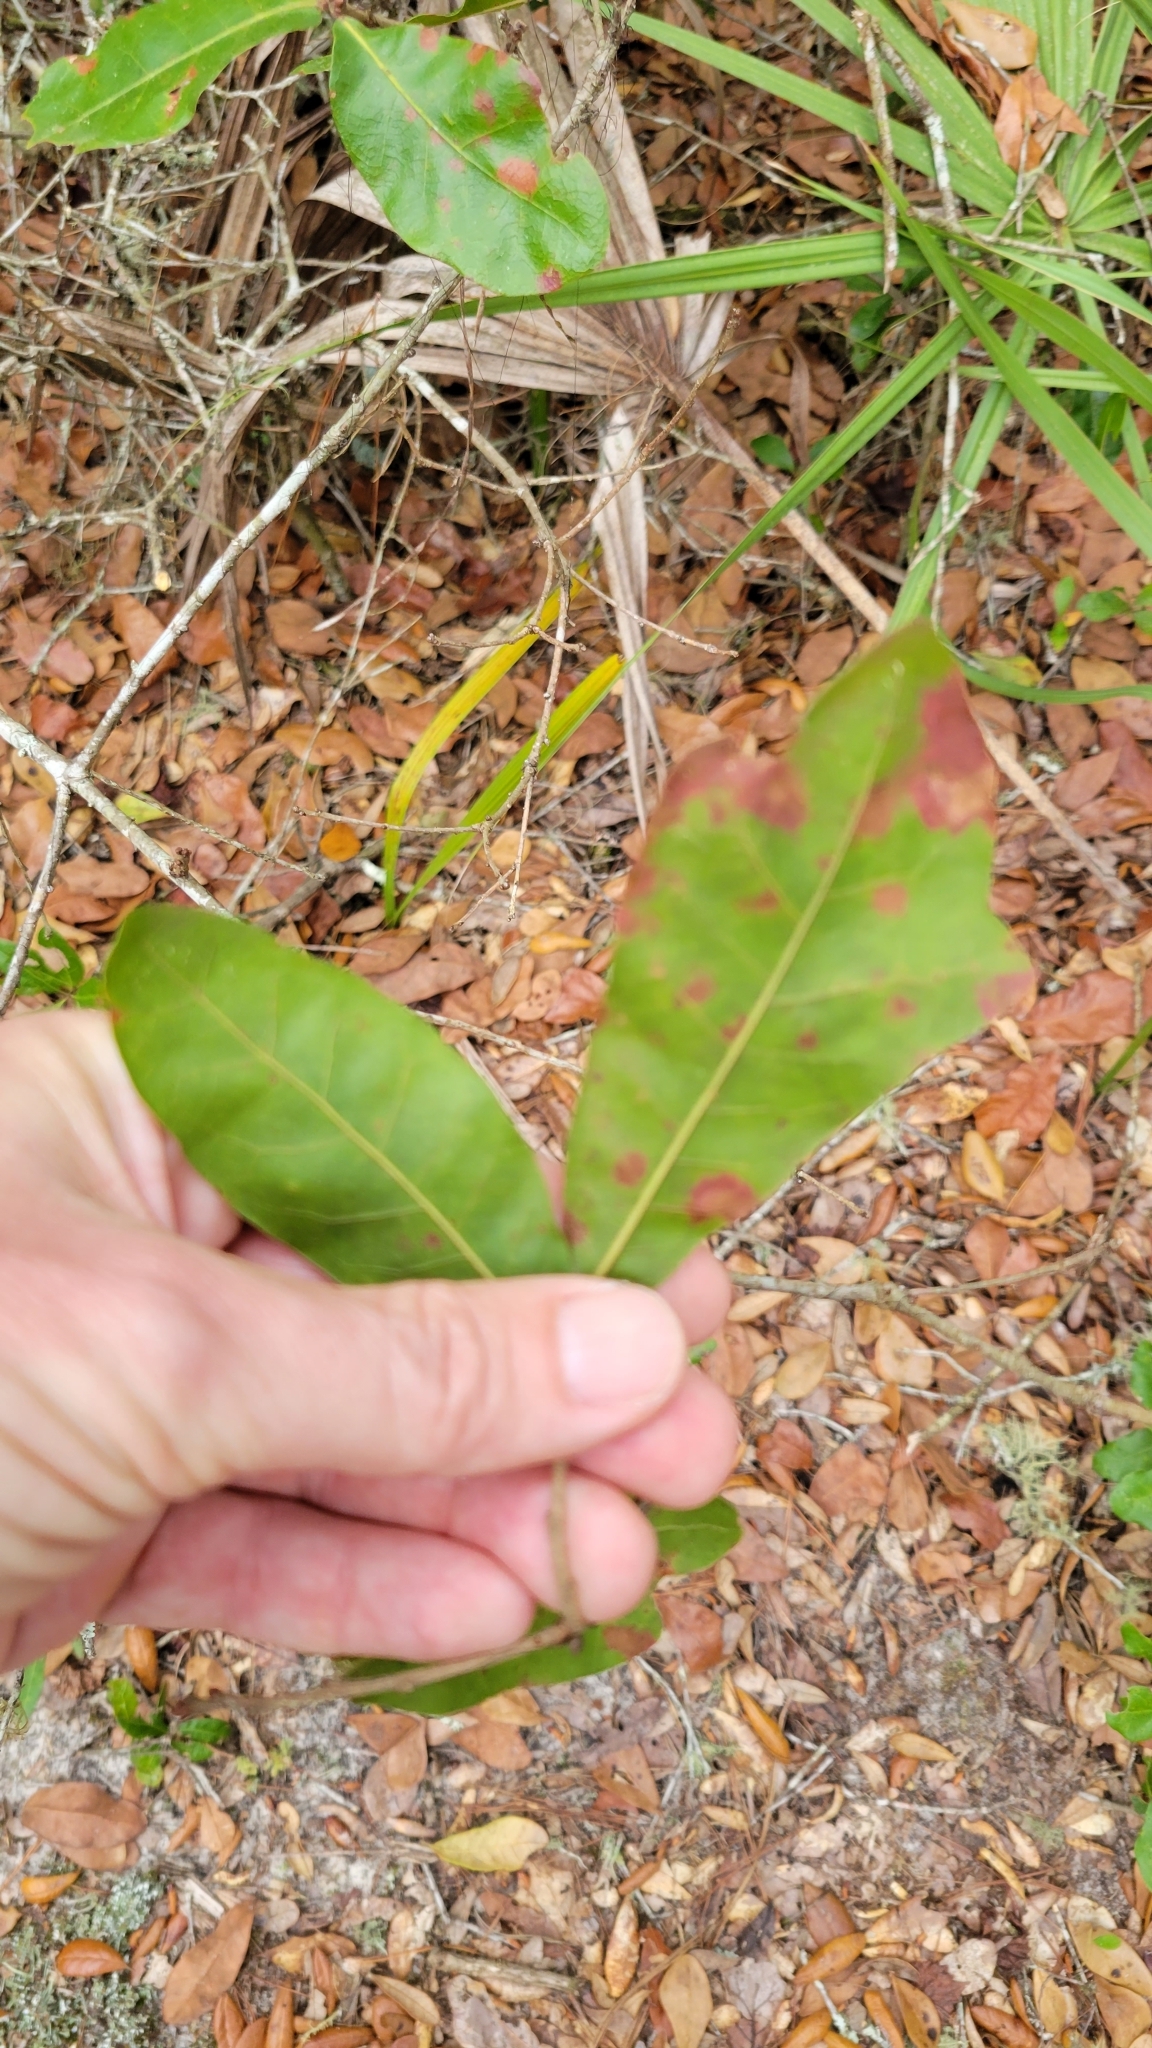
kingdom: Plantae
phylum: Tracheophyta
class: Magnoliopsida
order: Fagales
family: Fagaceae
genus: Quercus
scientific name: Quercus chapmanii
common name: Chapman oak
